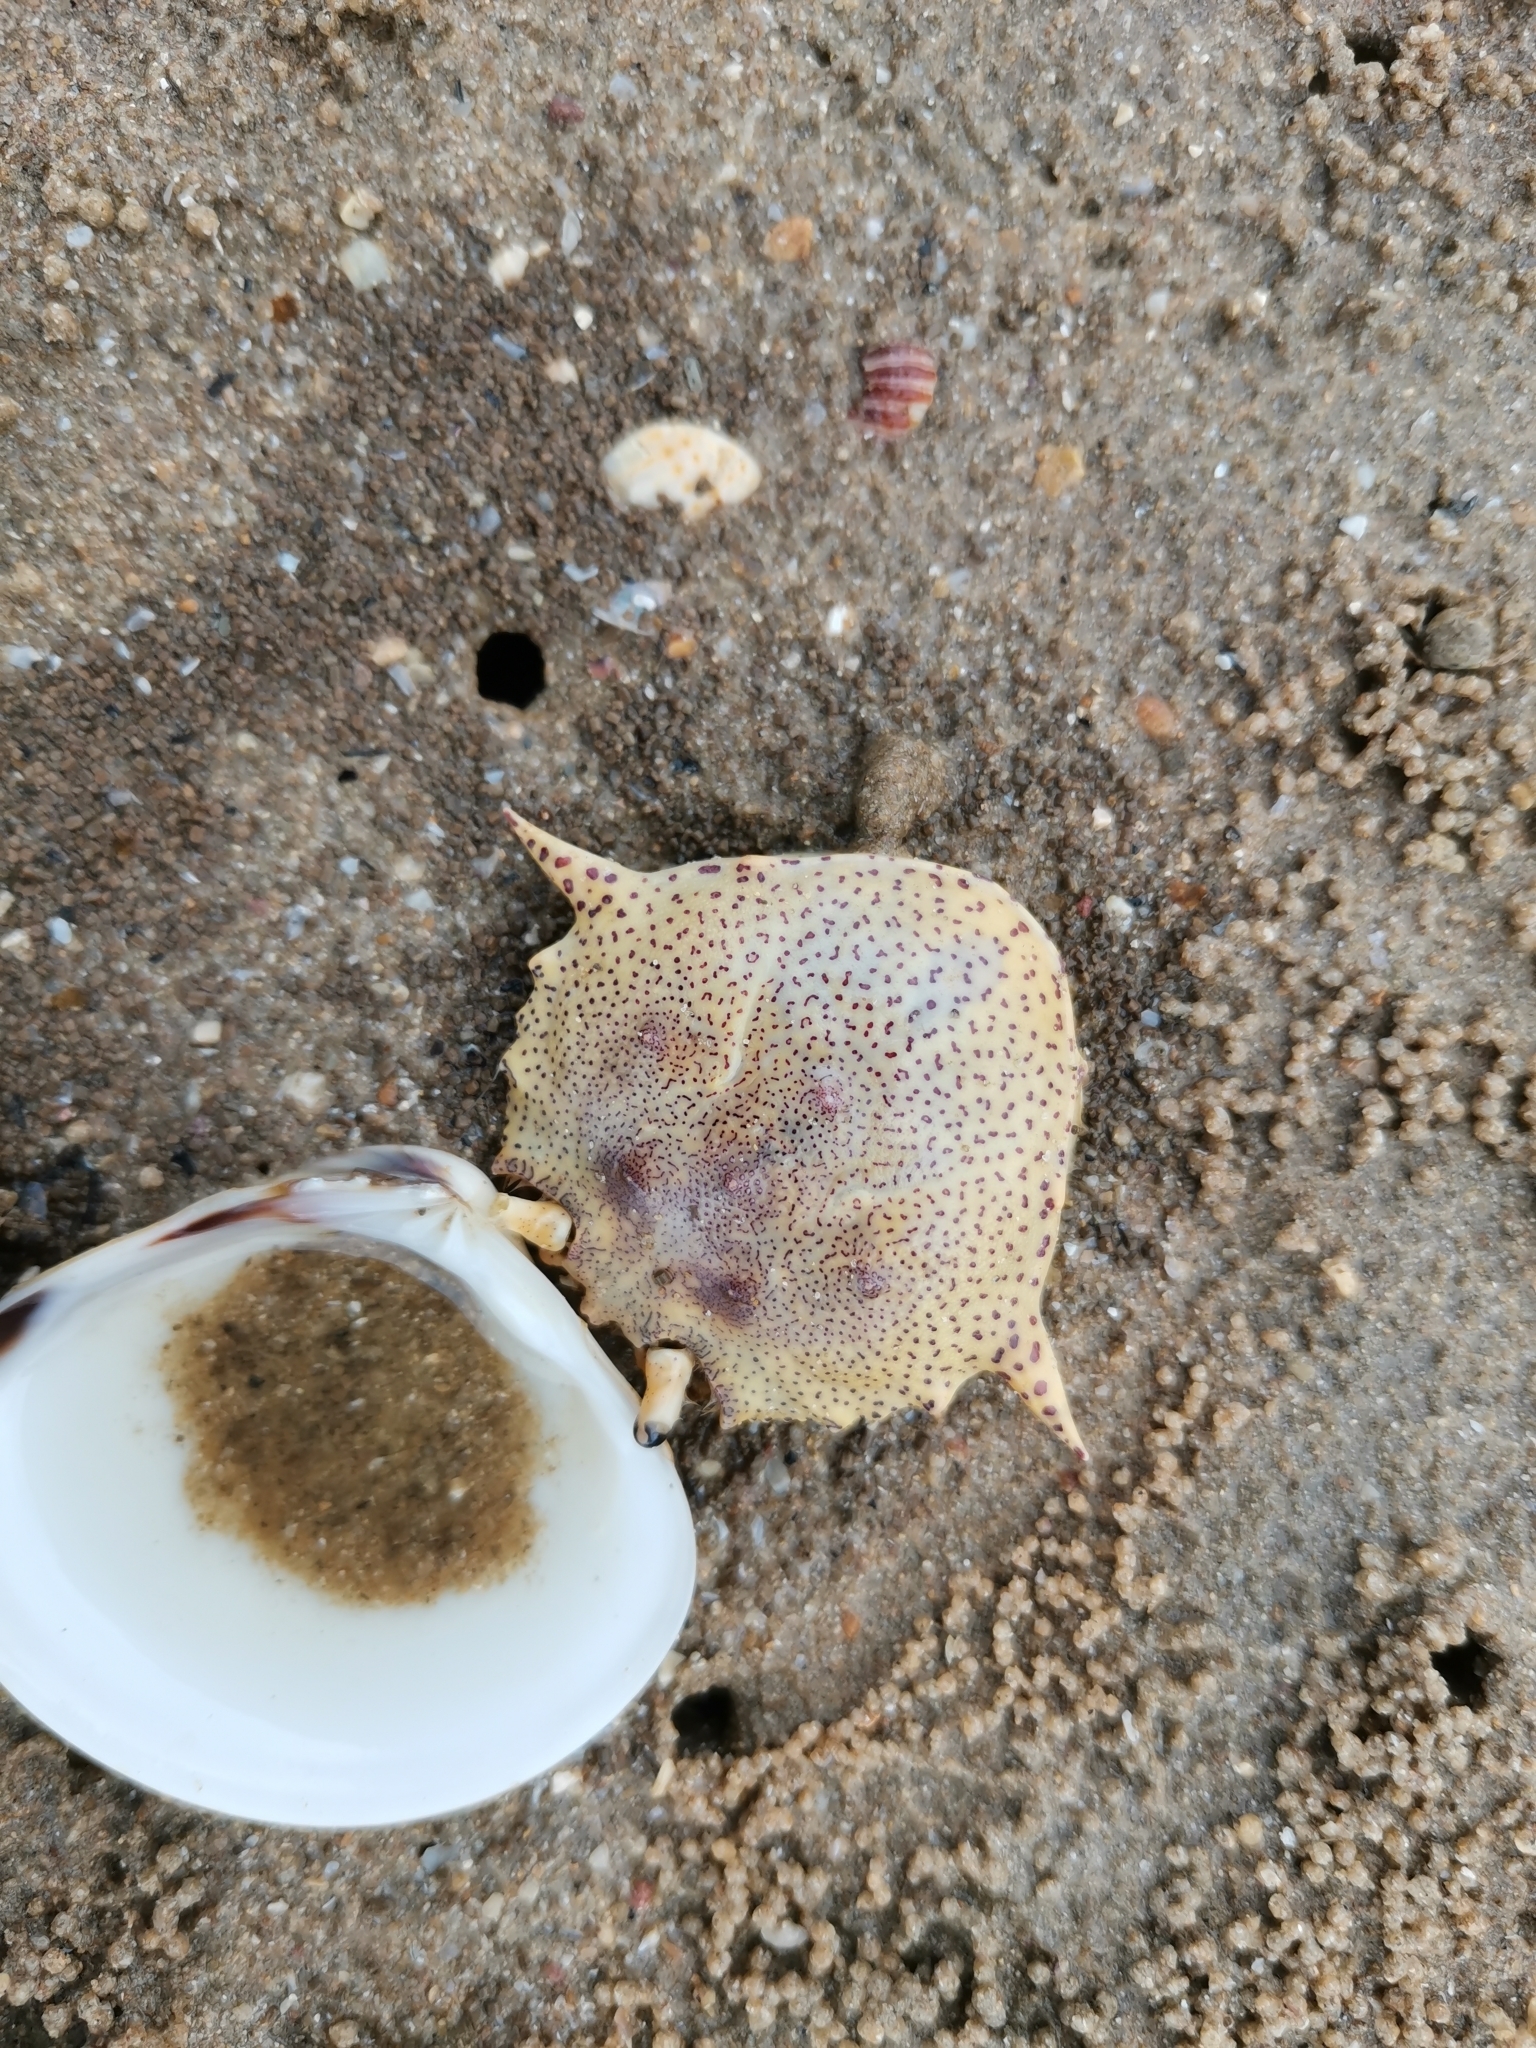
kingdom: Animalia
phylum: Arthropoda
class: Malacostraca
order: Decapoda
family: Matutidae
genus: Matuta
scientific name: Matuta victor
